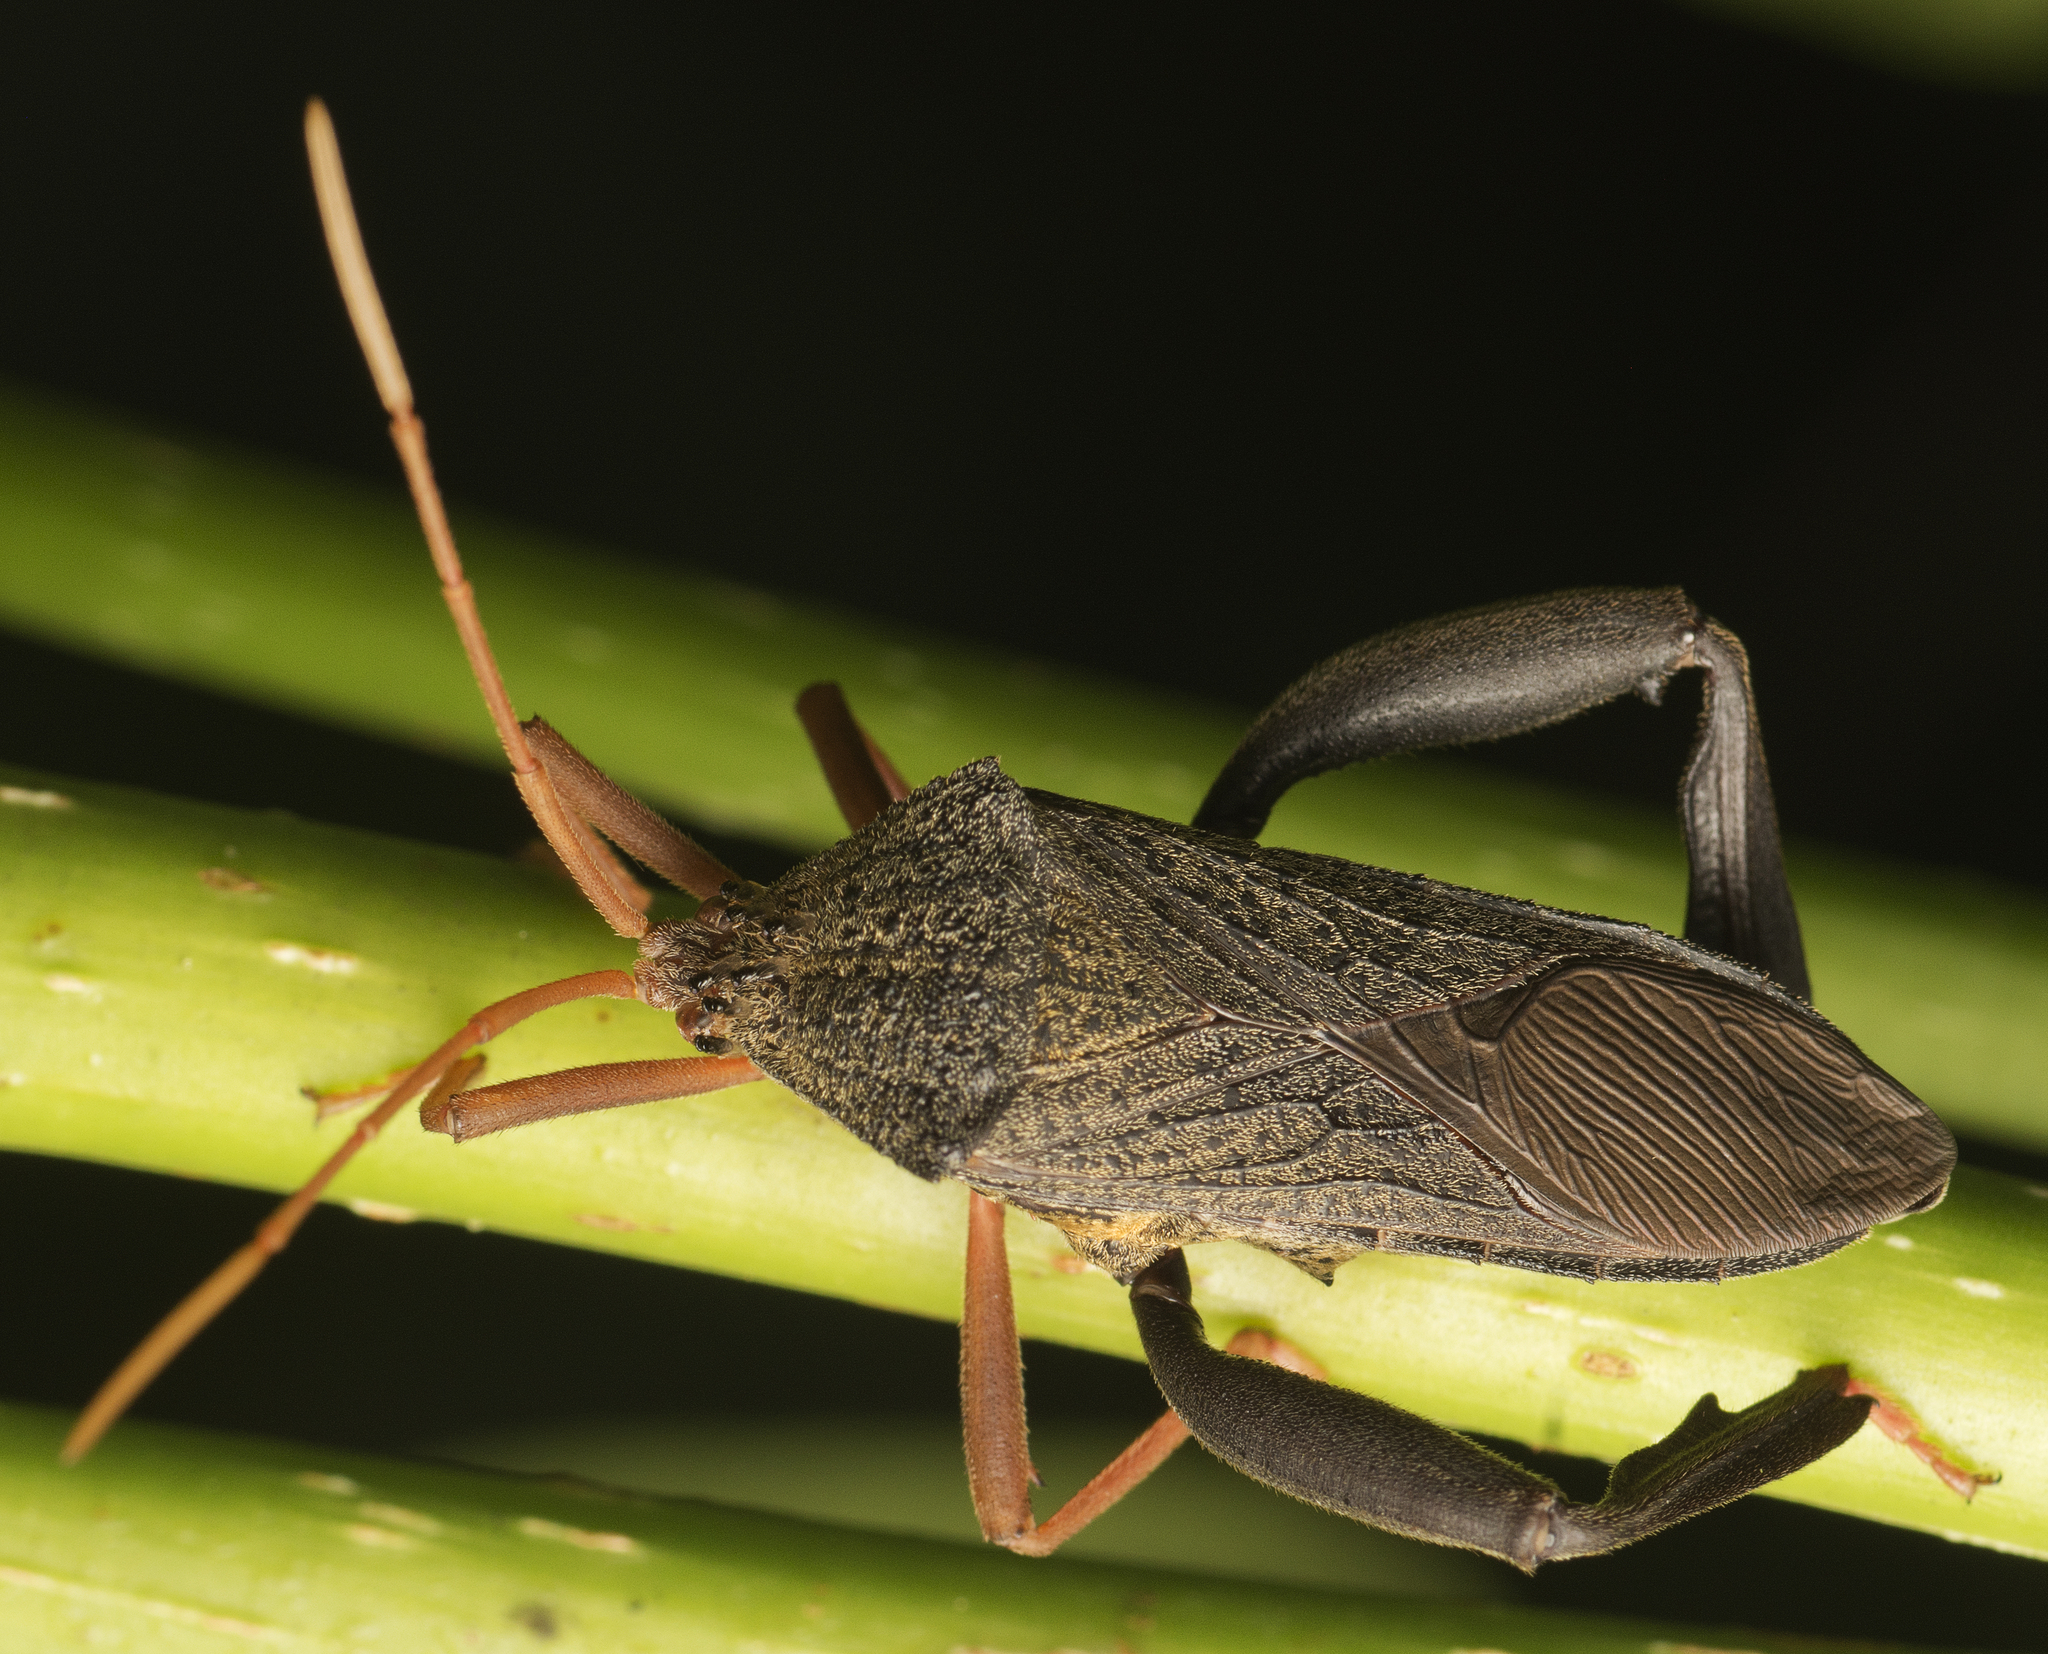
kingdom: Animalia
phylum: Arthropoda
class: Insecta
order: Hemiptera
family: Coreidae
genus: Pternistria
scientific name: Pternistria bispina
